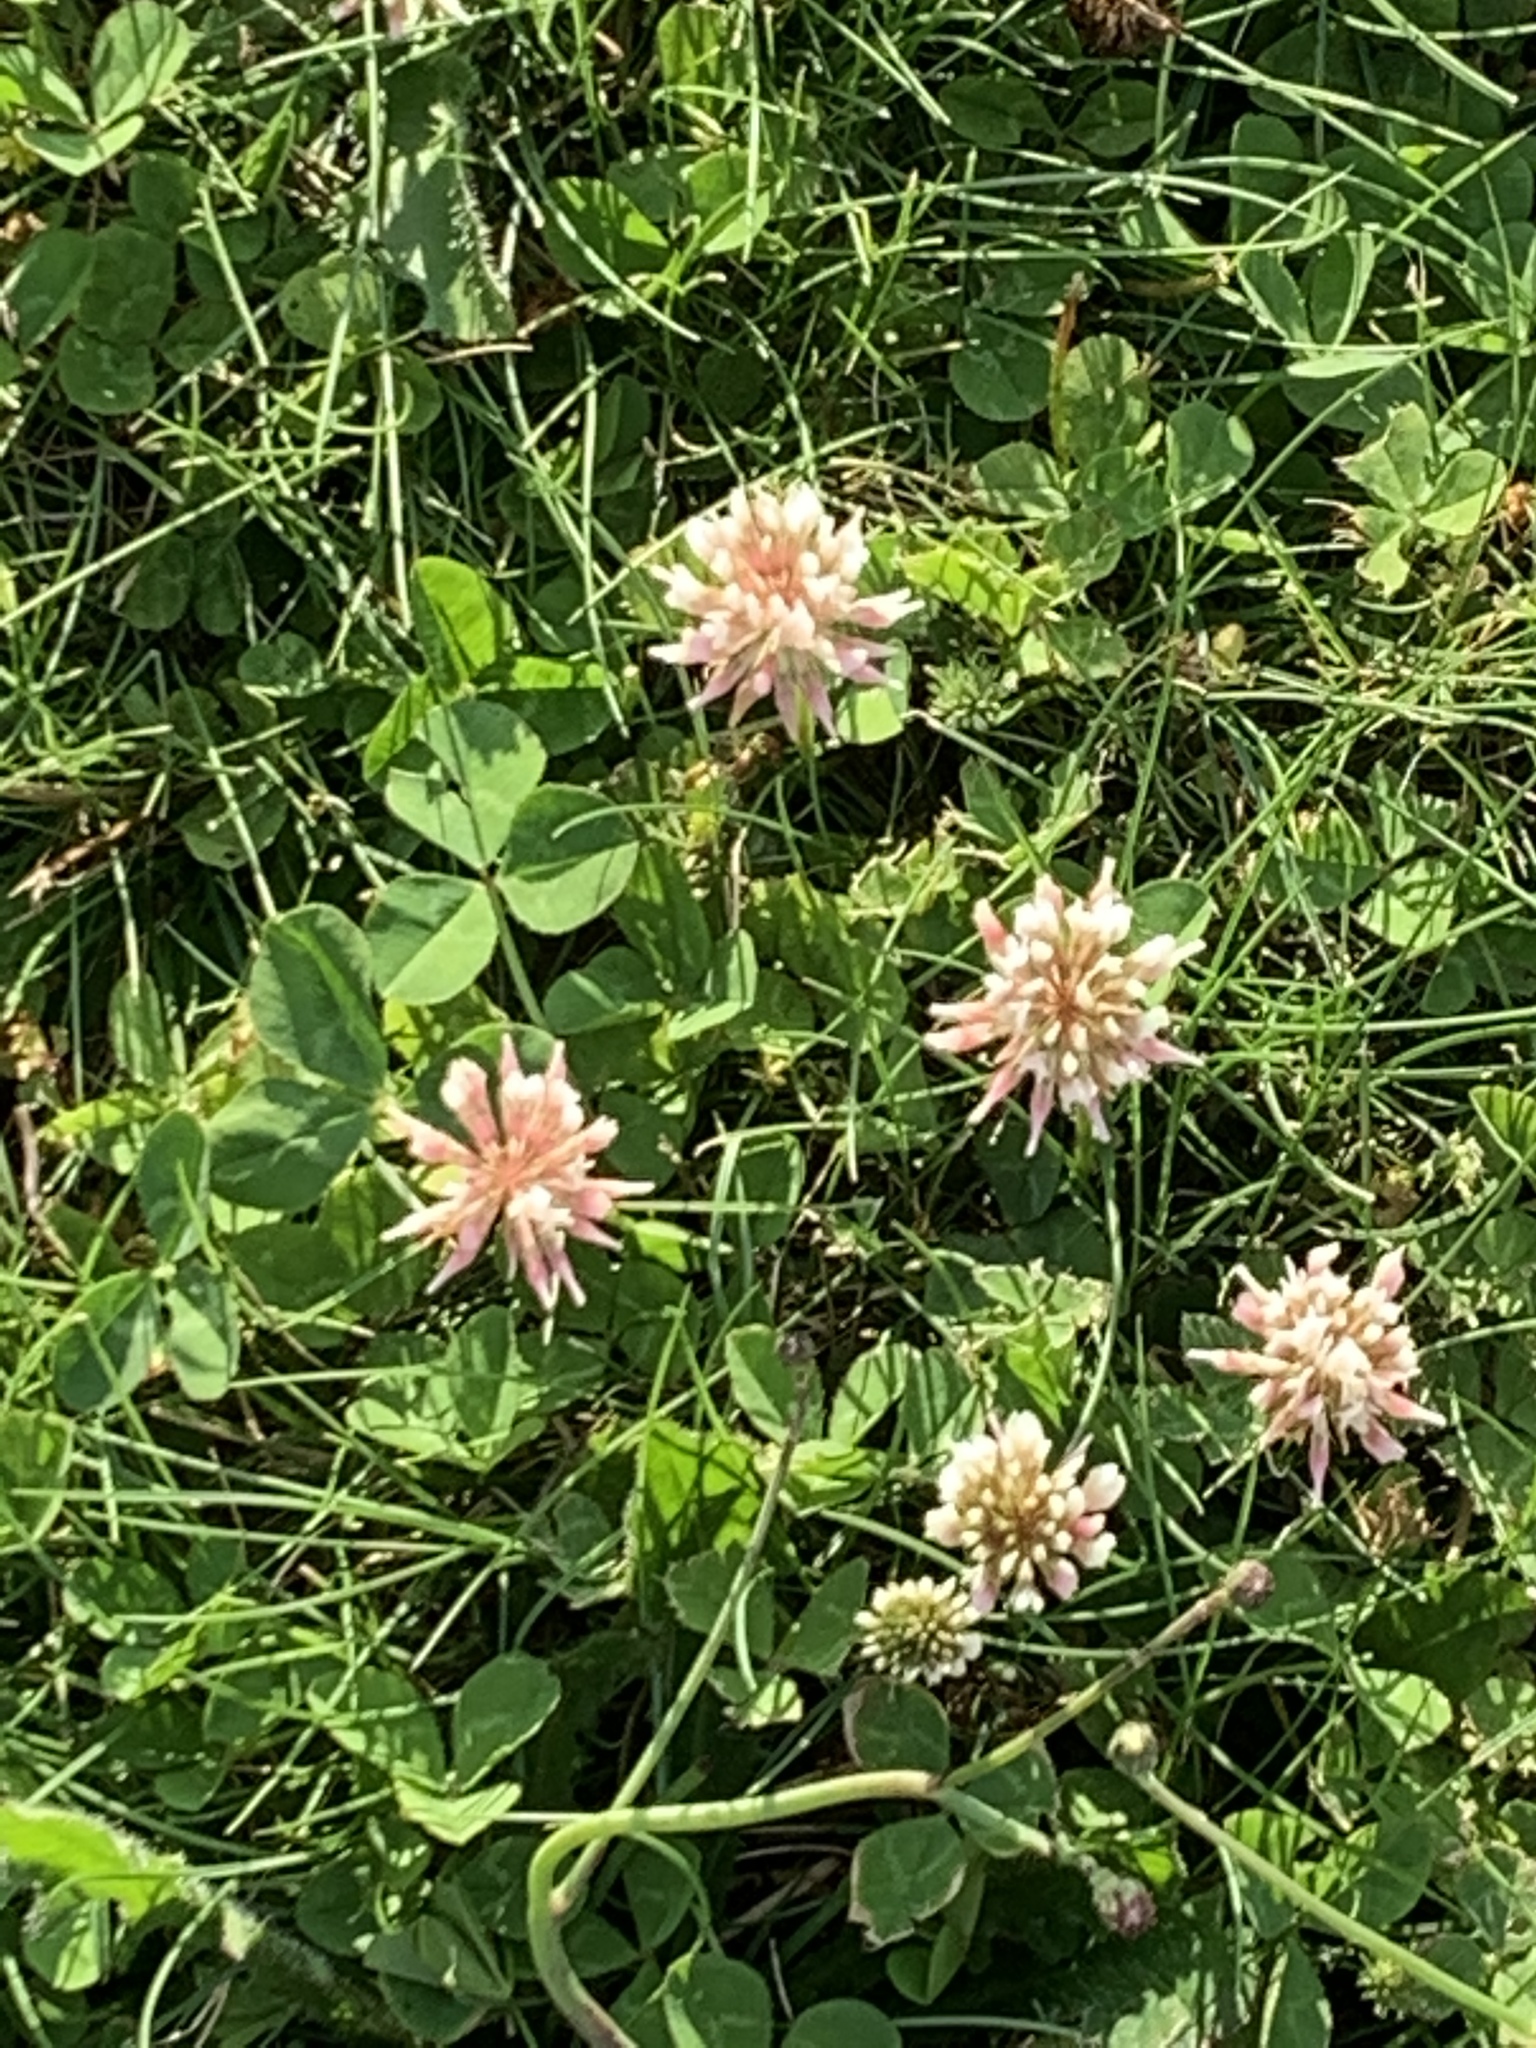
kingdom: Plantae
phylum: Tracheophyta
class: Magnoliopsida
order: Fabales
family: Fabaceae
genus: Trifolium
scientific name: Trifolium repens
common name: White clover
